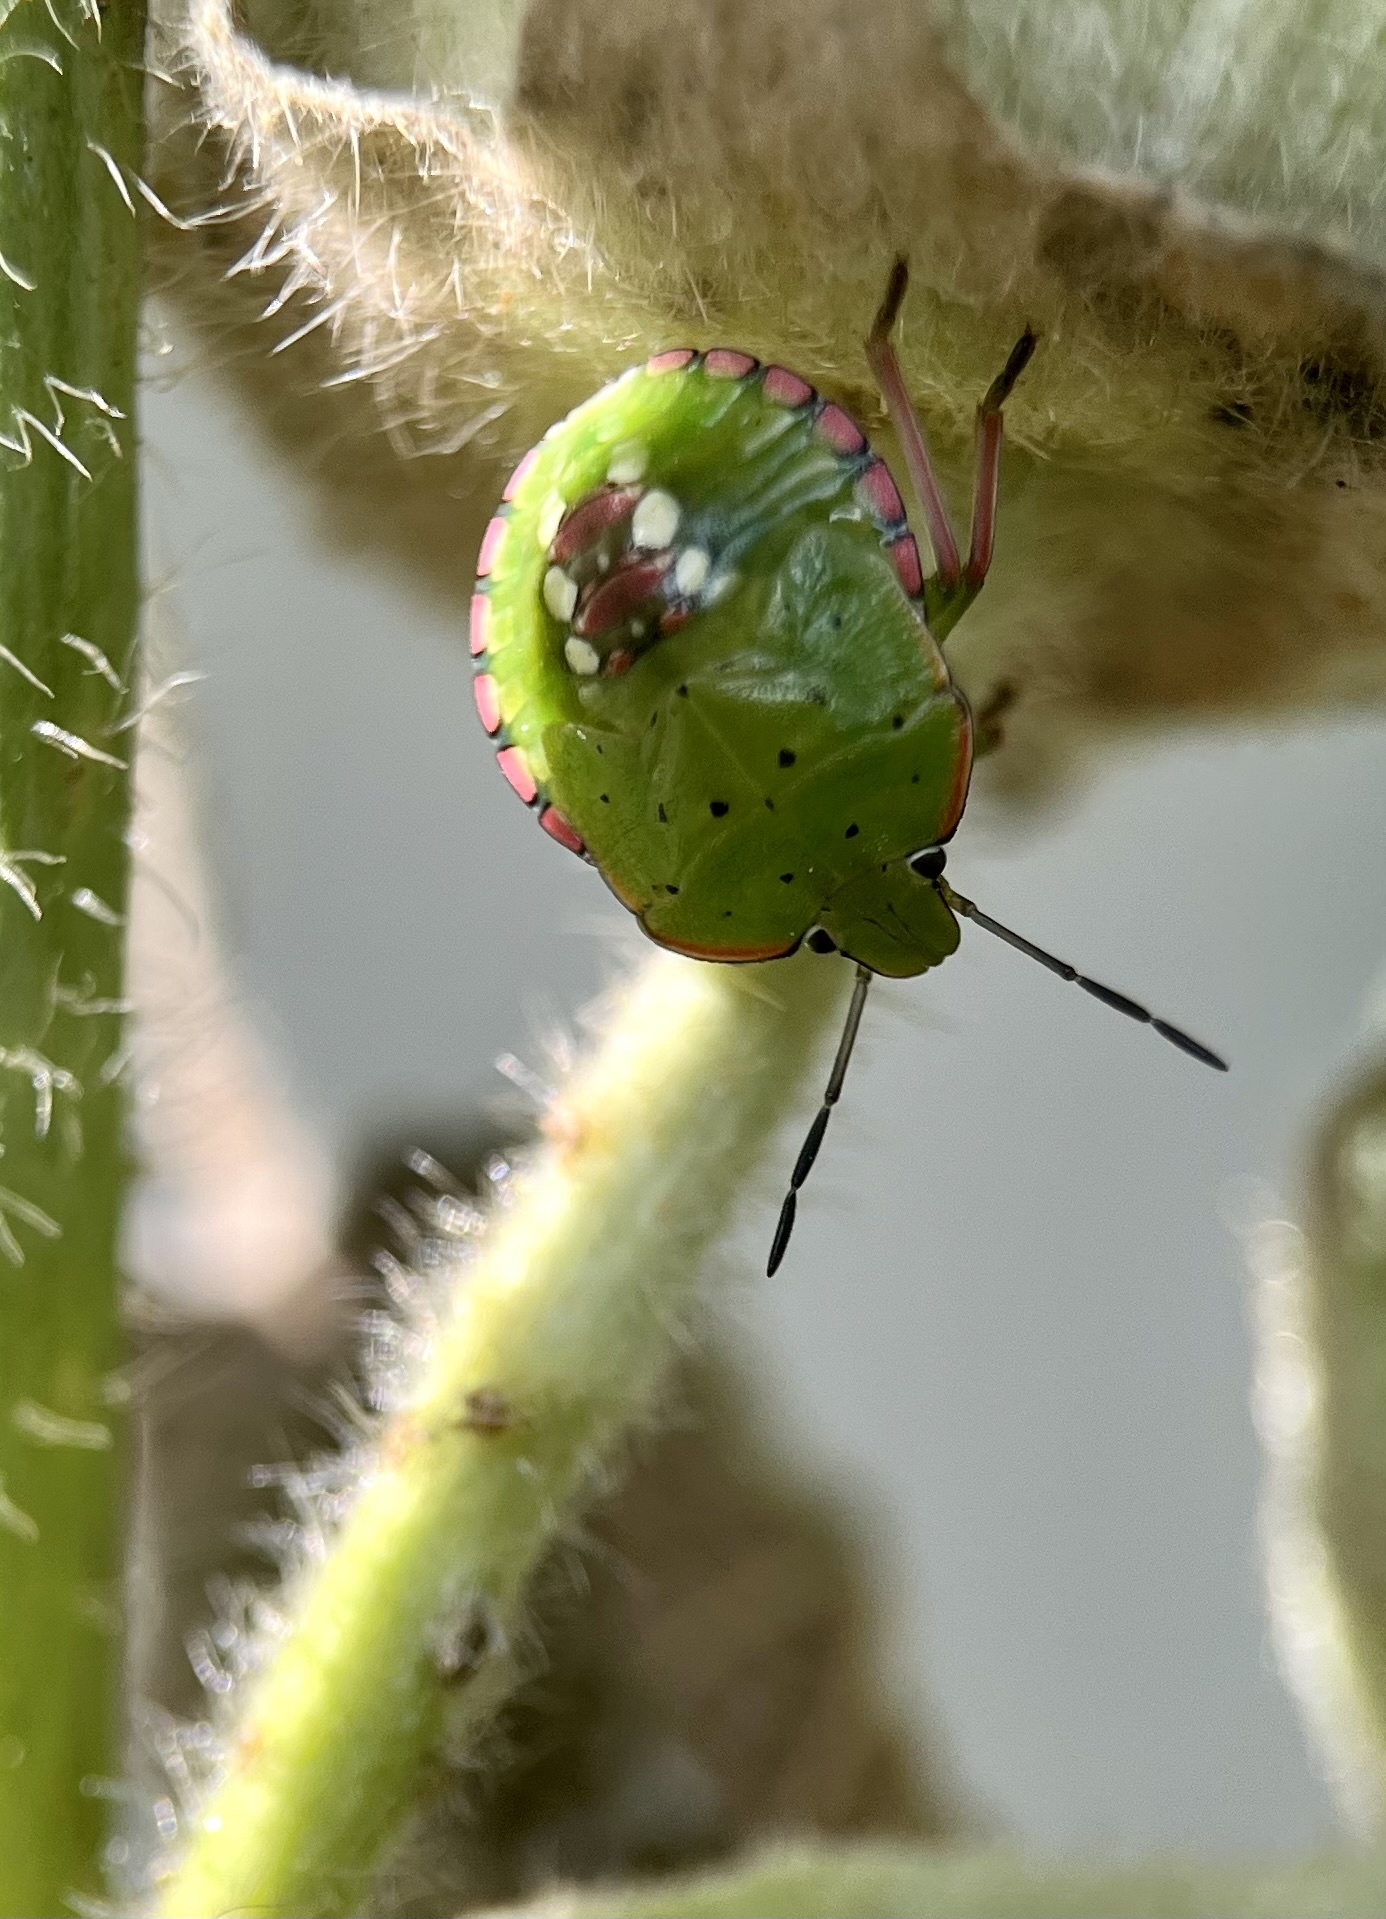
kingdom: Animalia
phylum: Arthropoda
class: Insecta
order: Hemiptera
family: Pentatomidae
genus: Nezara
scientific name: Nezara viridula
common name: Southern green stink bug
